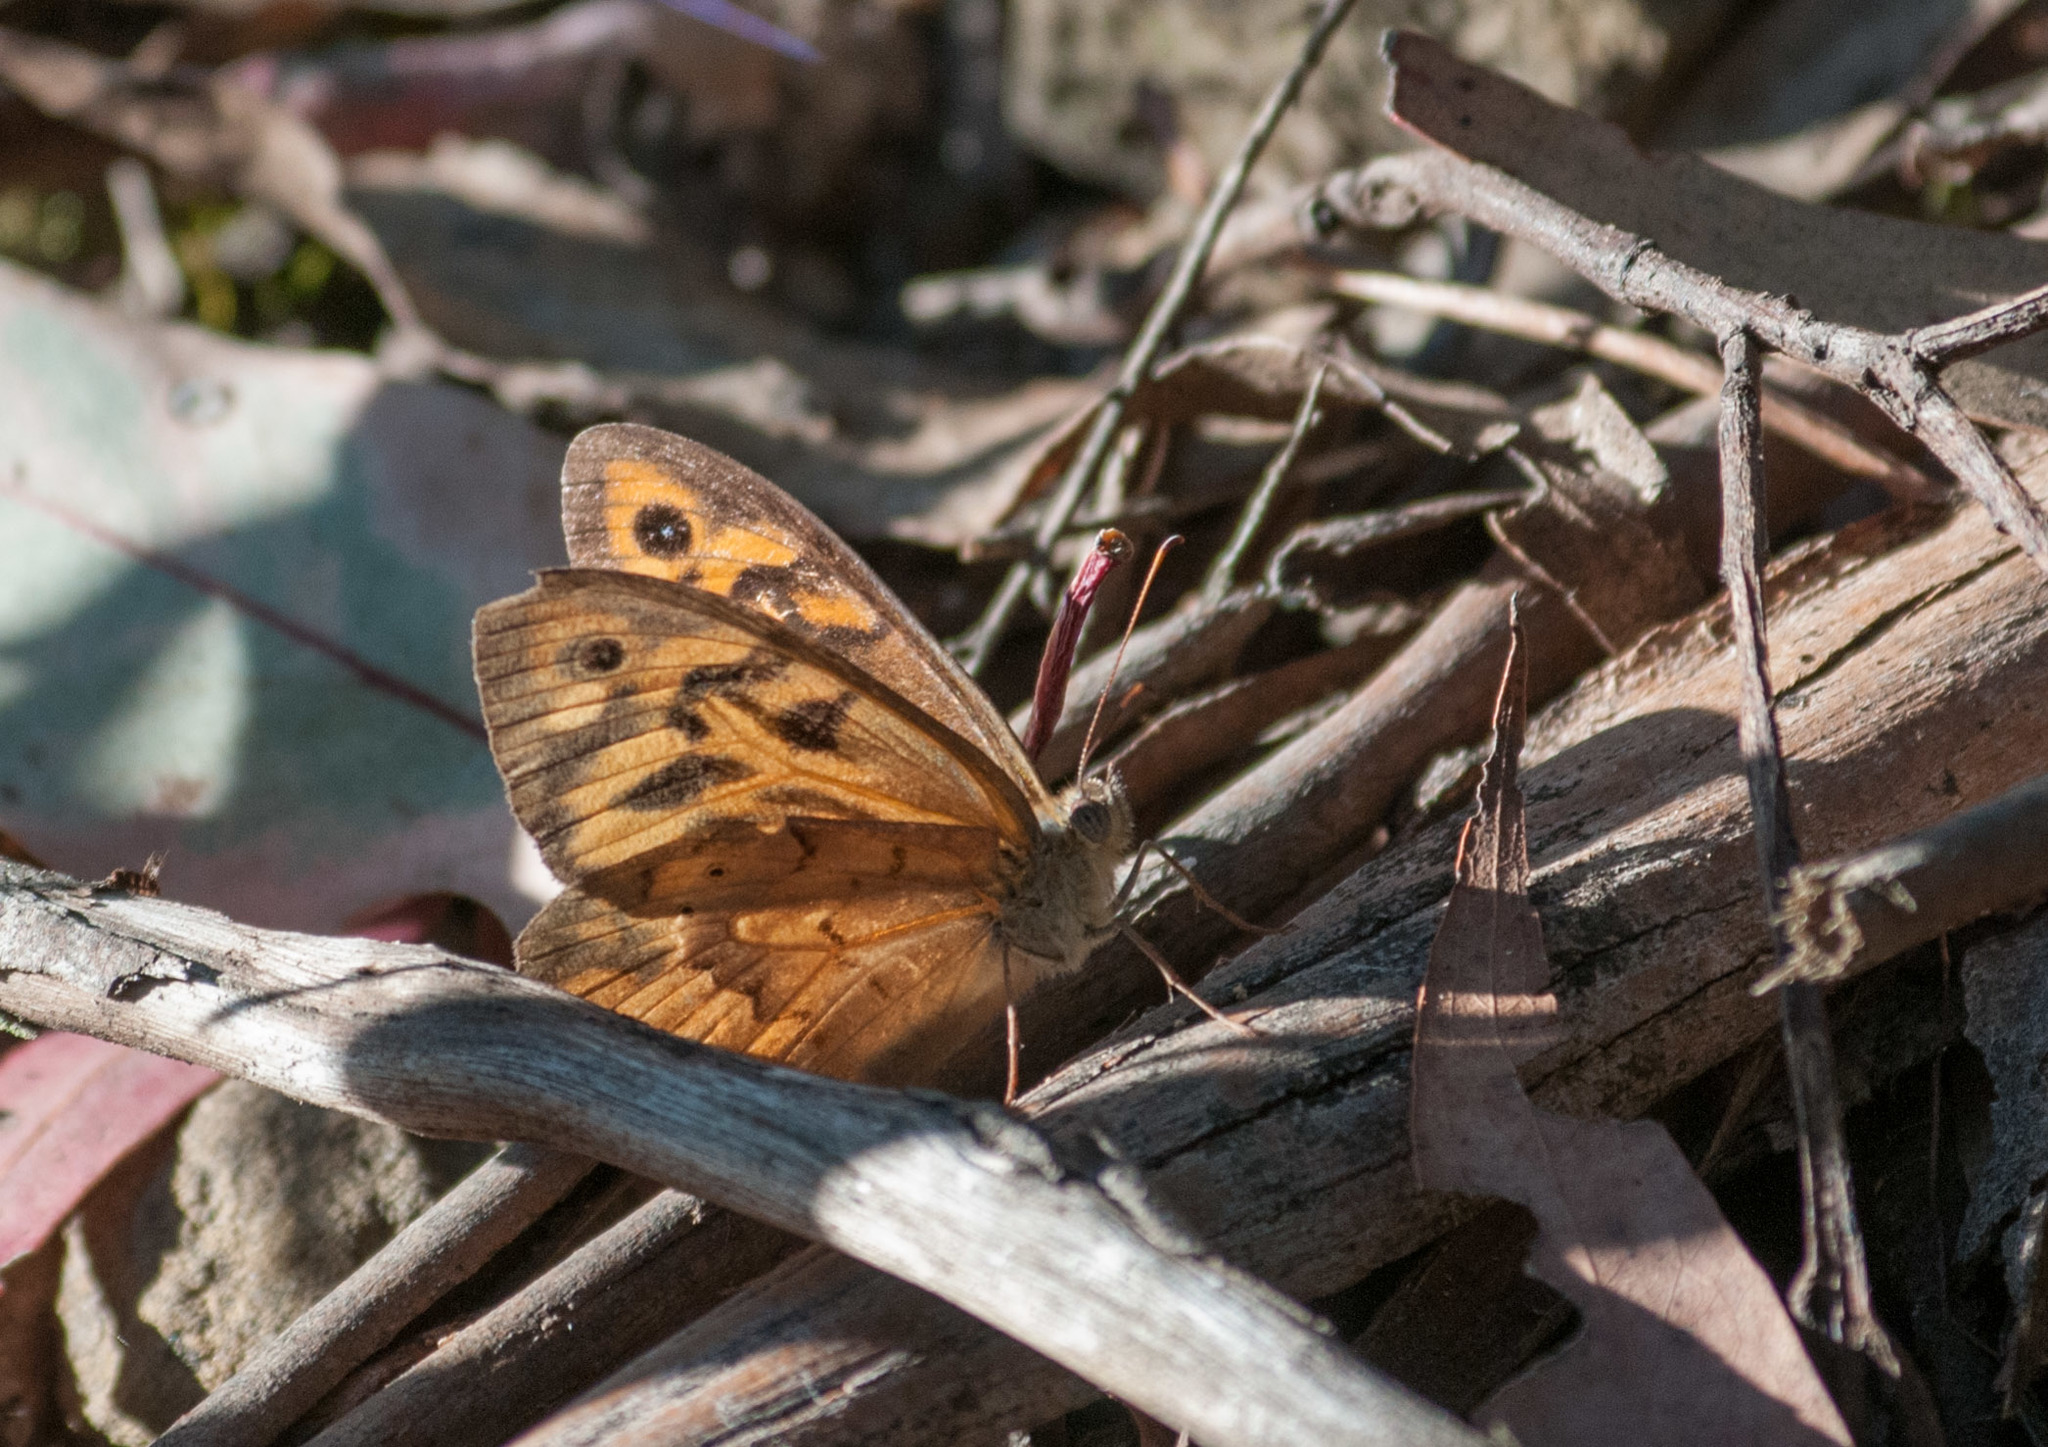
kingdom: Animalia
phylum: Arthropoda
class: Insecta
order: Lepidoptera
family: Nymphalidae
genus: Heteronympha
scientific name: Heteronympha merope
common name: Common brown
